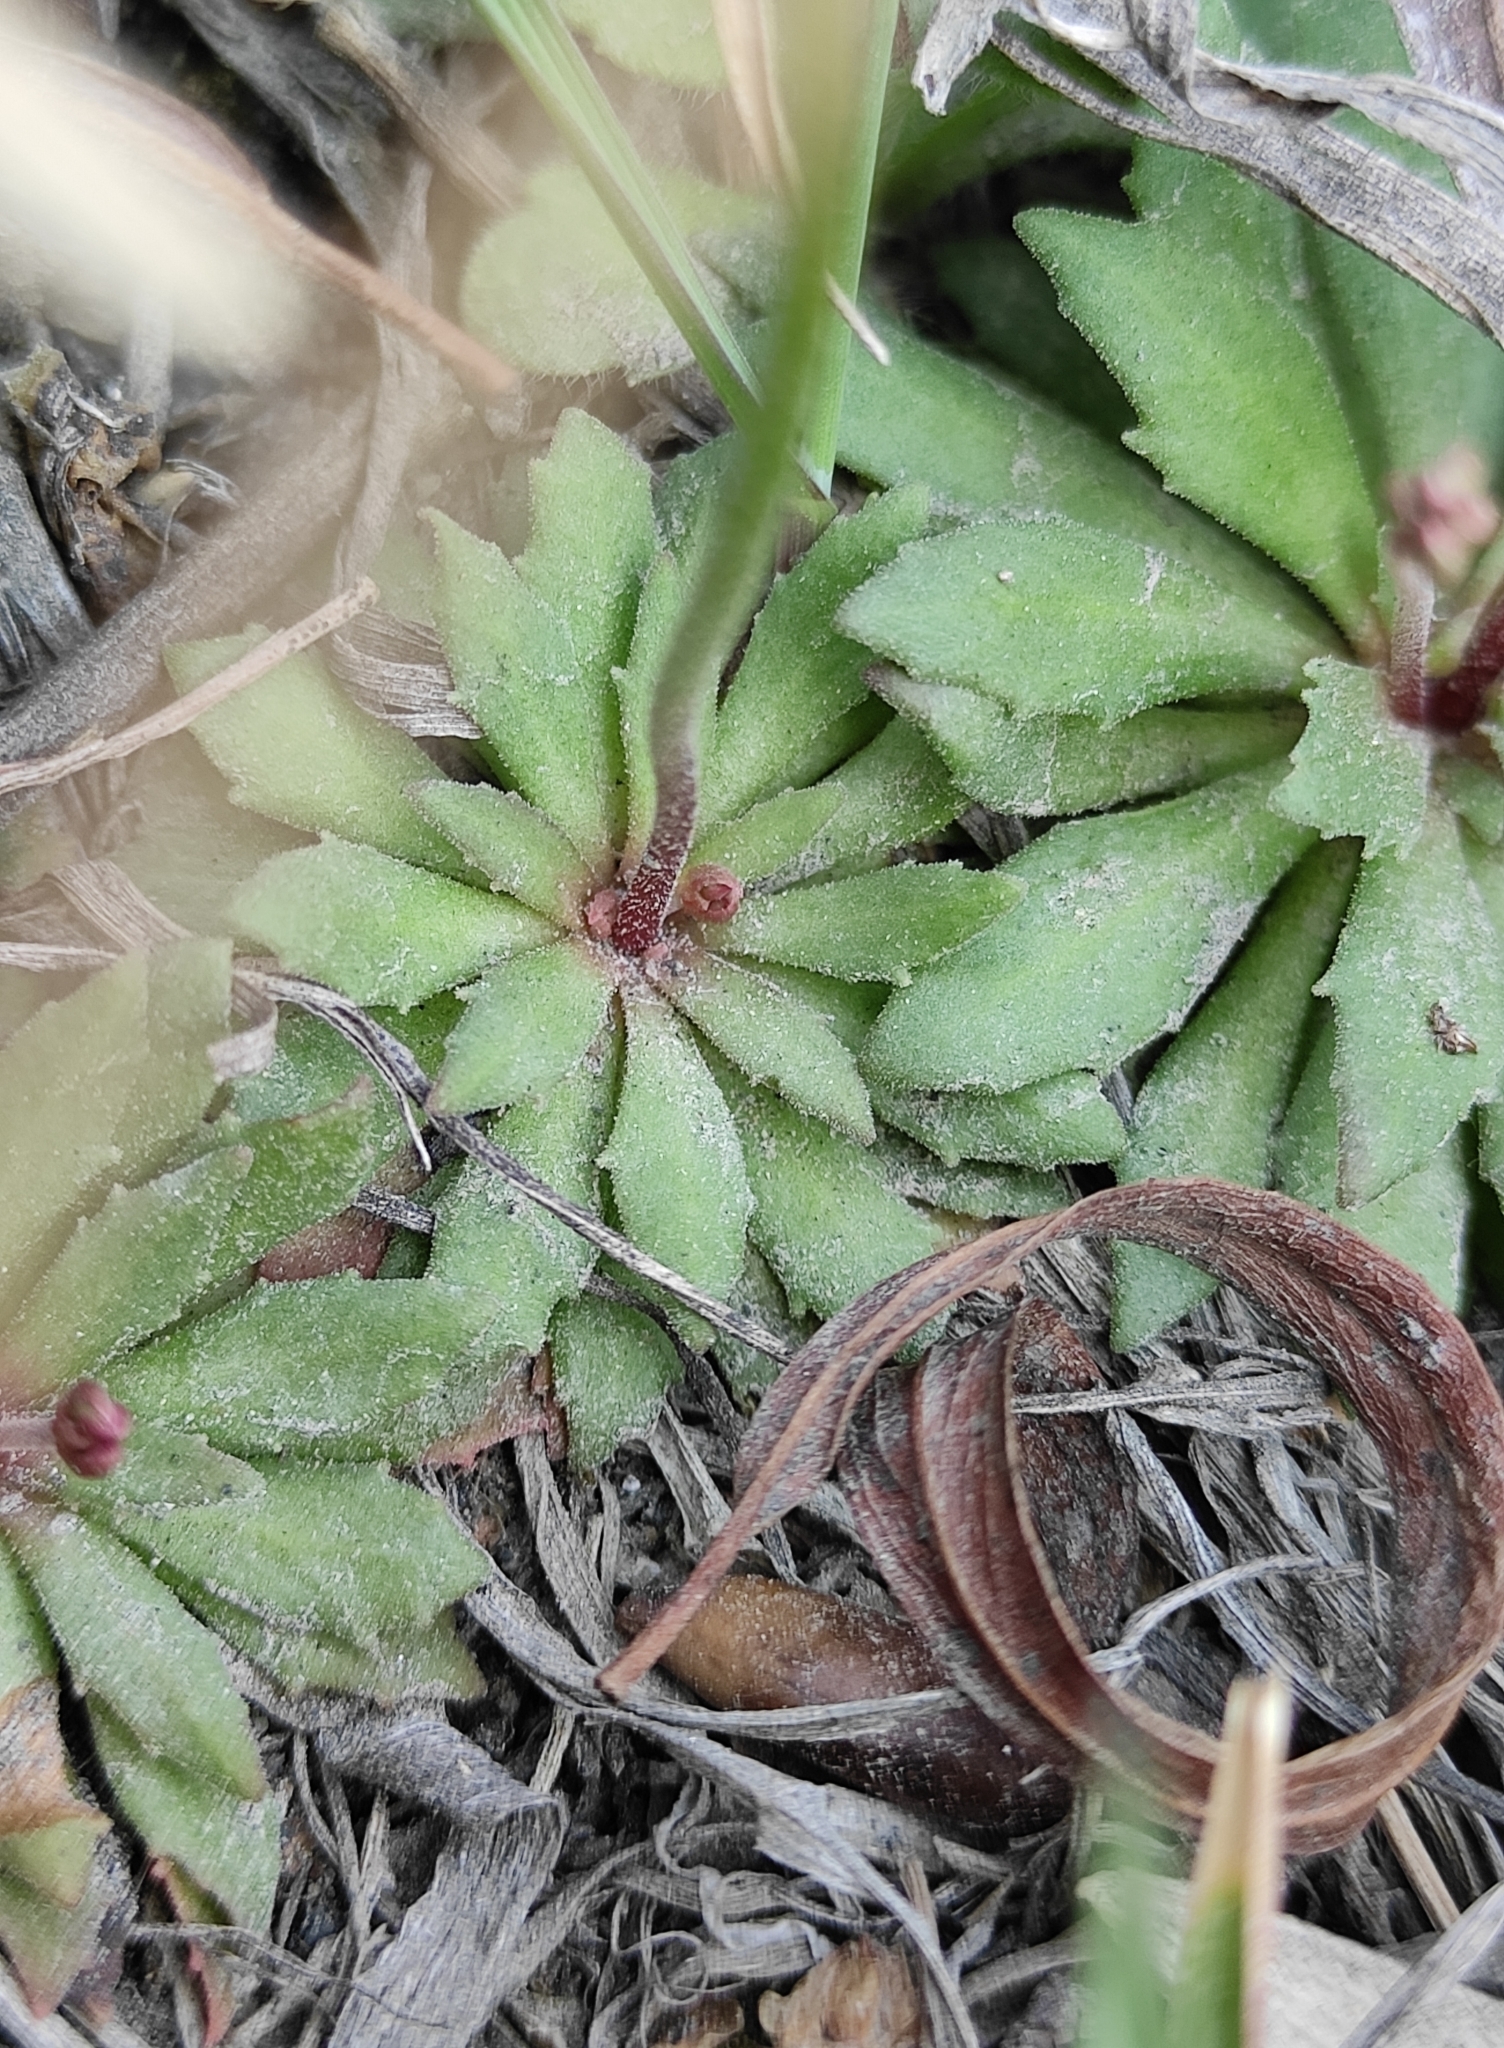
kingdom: Plantae
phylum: Tracheophyta
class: Magnoliopsida
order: Ericales
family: Primulaceae
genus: Androsace
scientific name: Androsace septentrionalis
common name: Hairy northern fairy-candelabra
